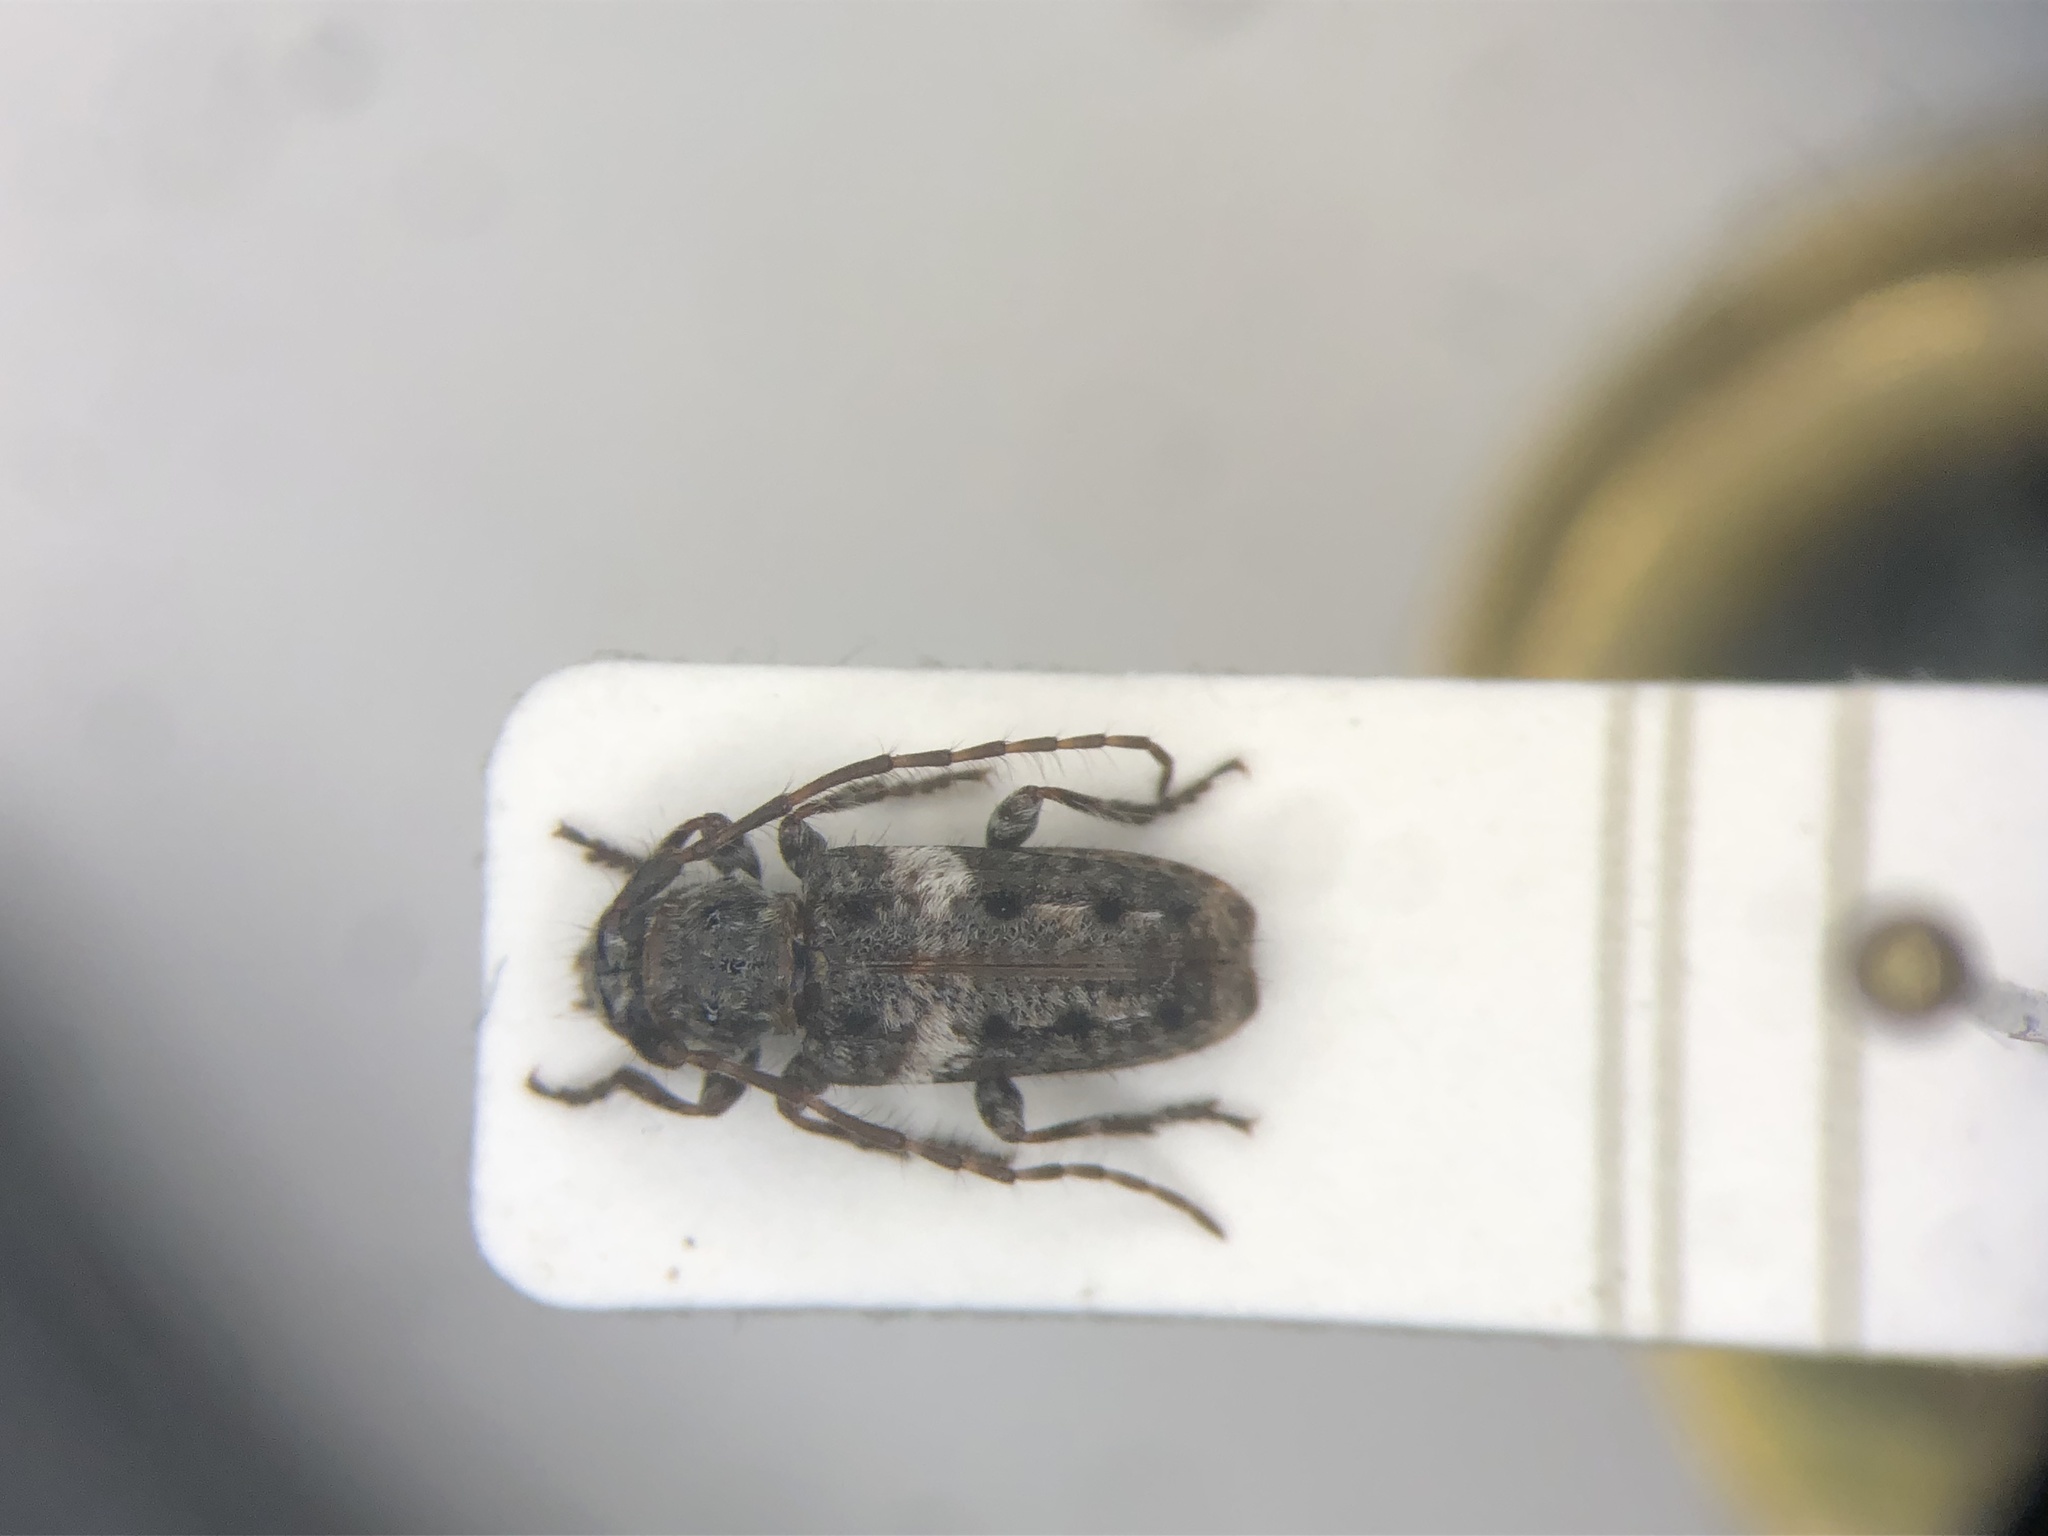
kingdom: Animalia
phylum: Arthropoda
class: Insecta
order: Coleoptera
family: Cerambycidae
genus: Pogonocherus
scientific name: Pogonocherus penicillatus
